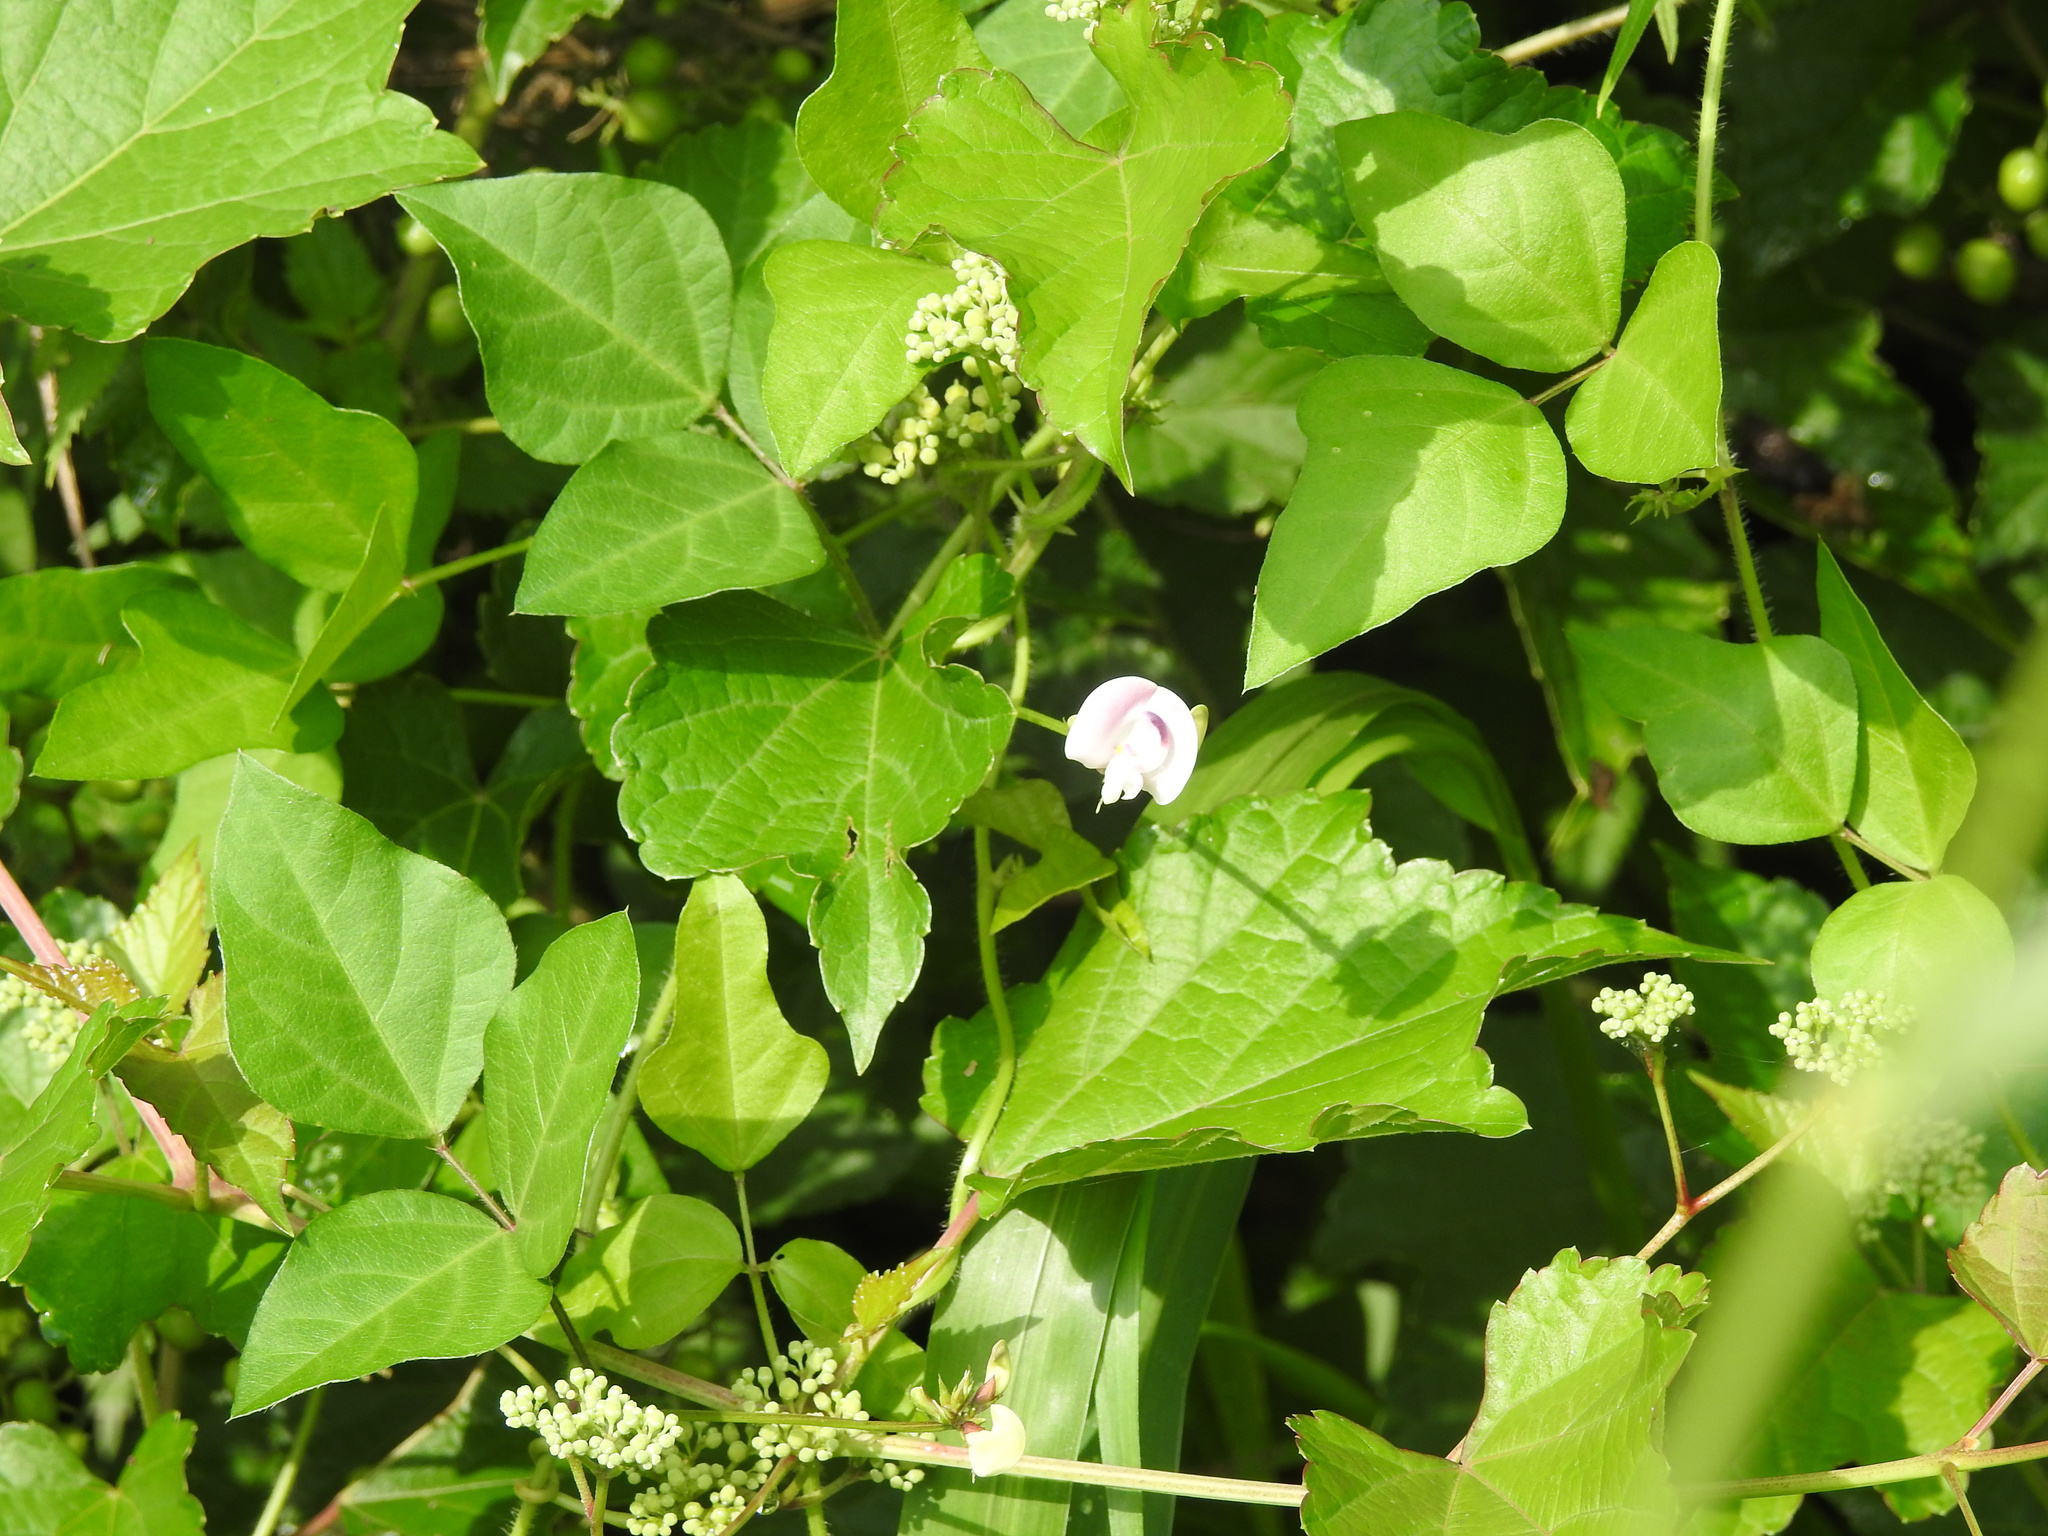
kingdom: Plantae
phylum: Tracheophyta
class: Magnoliopsida
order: Fabales
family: Fabaceae
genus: Strophostyles
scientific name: Strophostyles helvola
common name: Trailing wild bean
